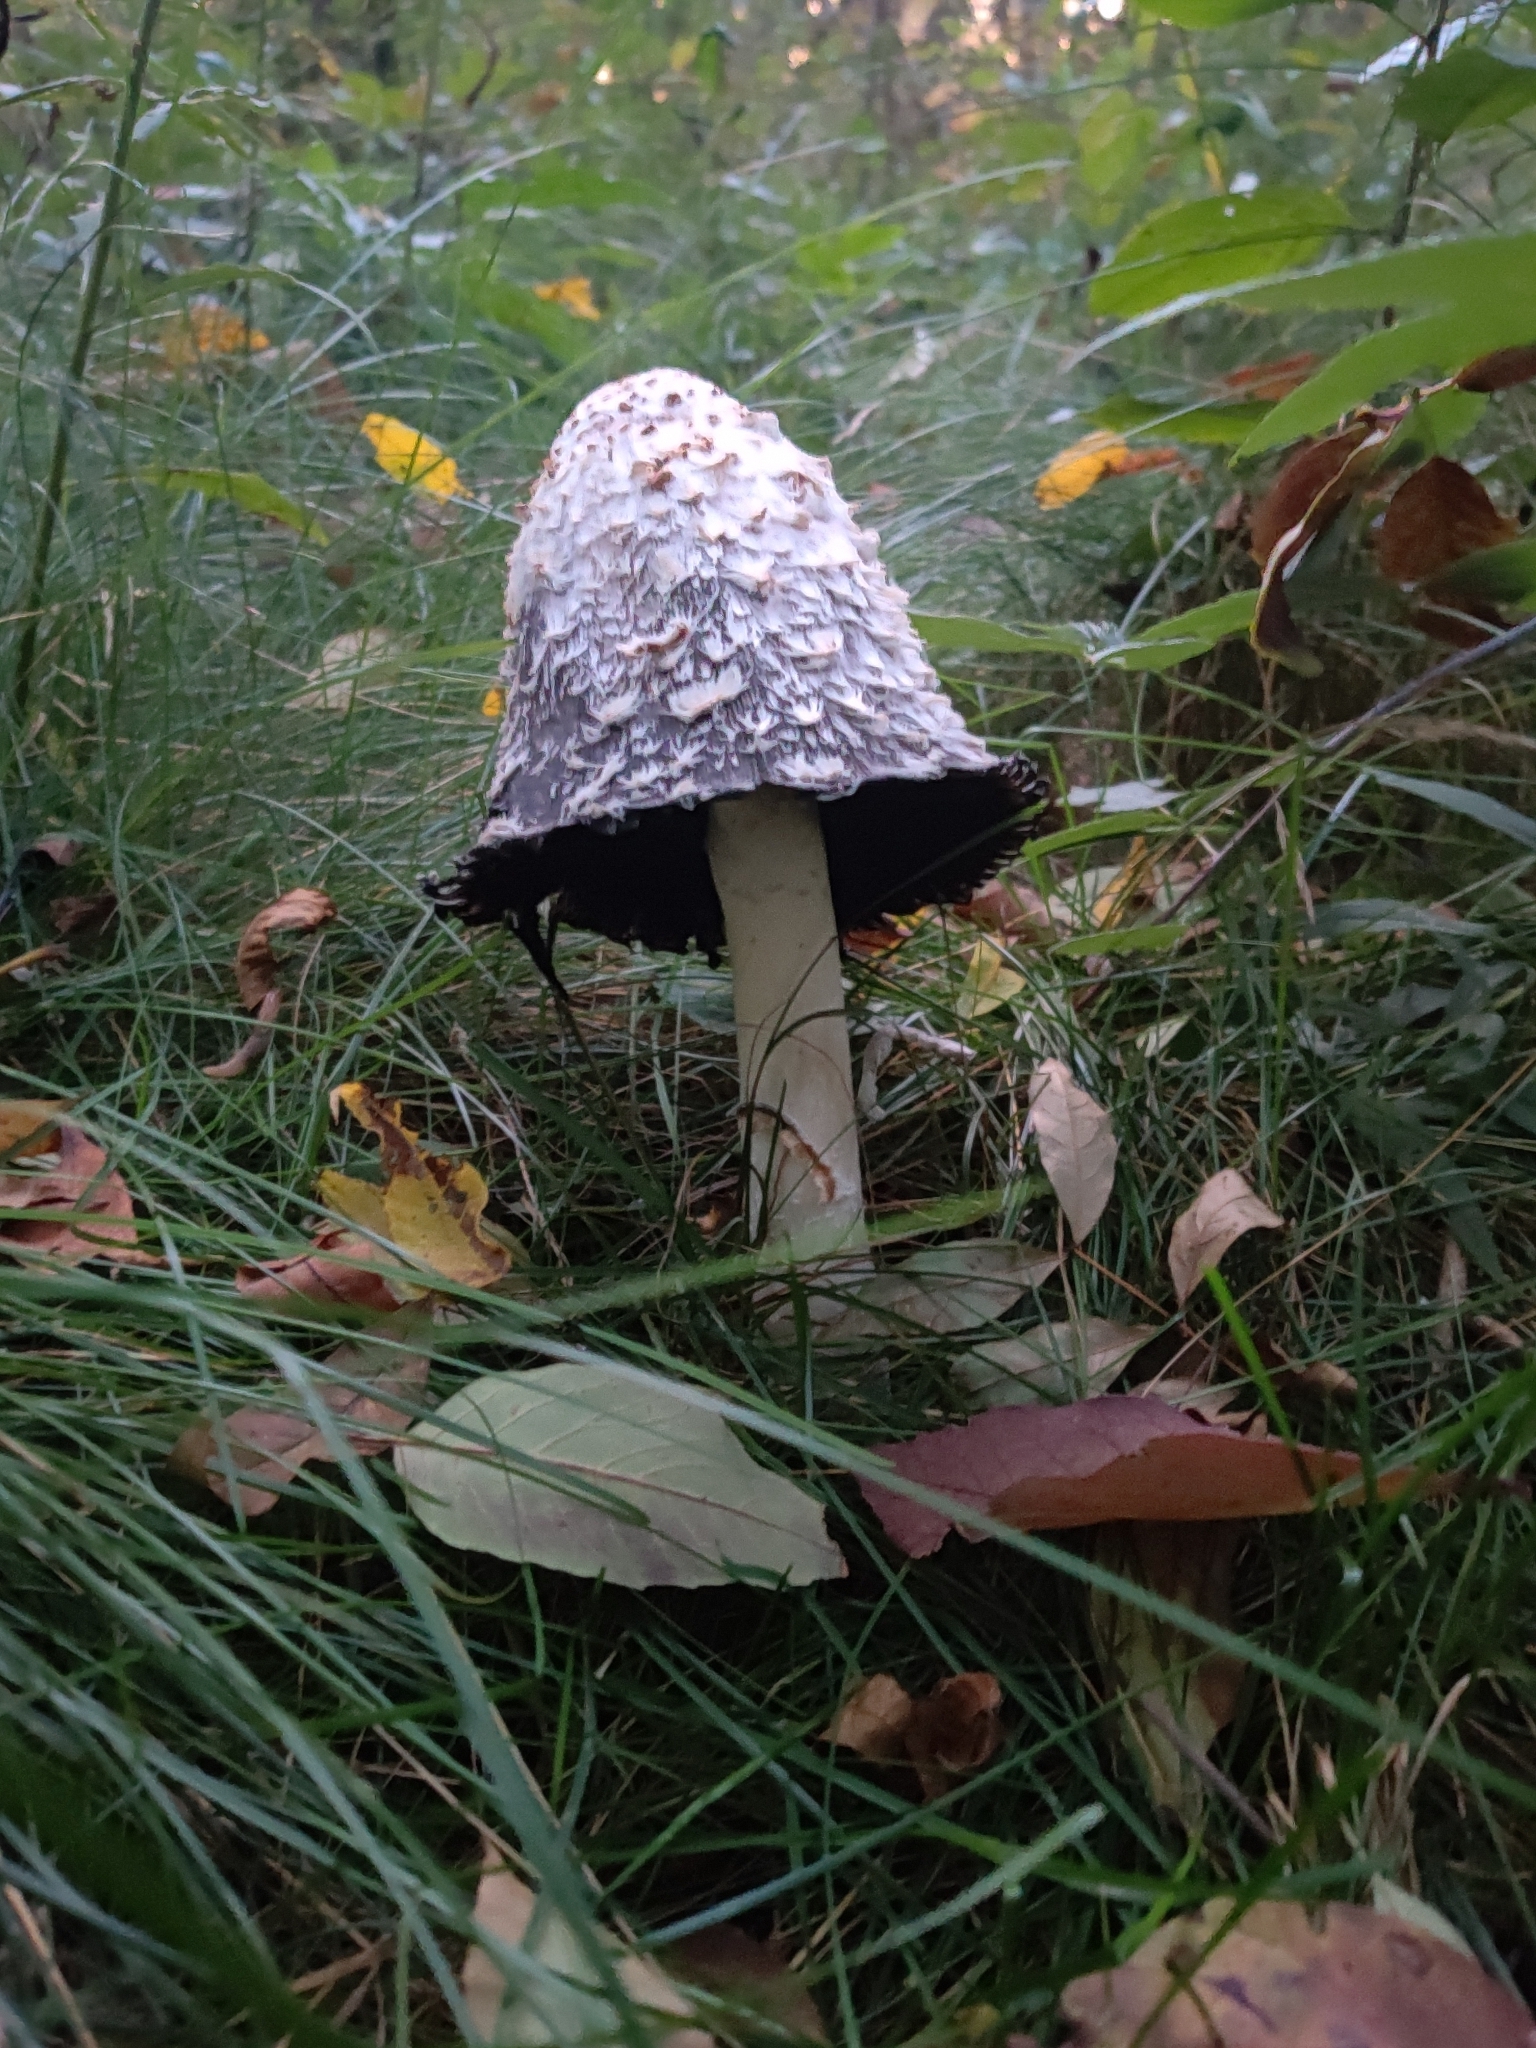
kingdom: Fungi
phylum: Basidiomycota
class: Agaricomycetes
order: Agaricales
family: Agaricaceae
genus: Coprinus
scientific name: Coprinus comatus
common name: Lawyer's wig
